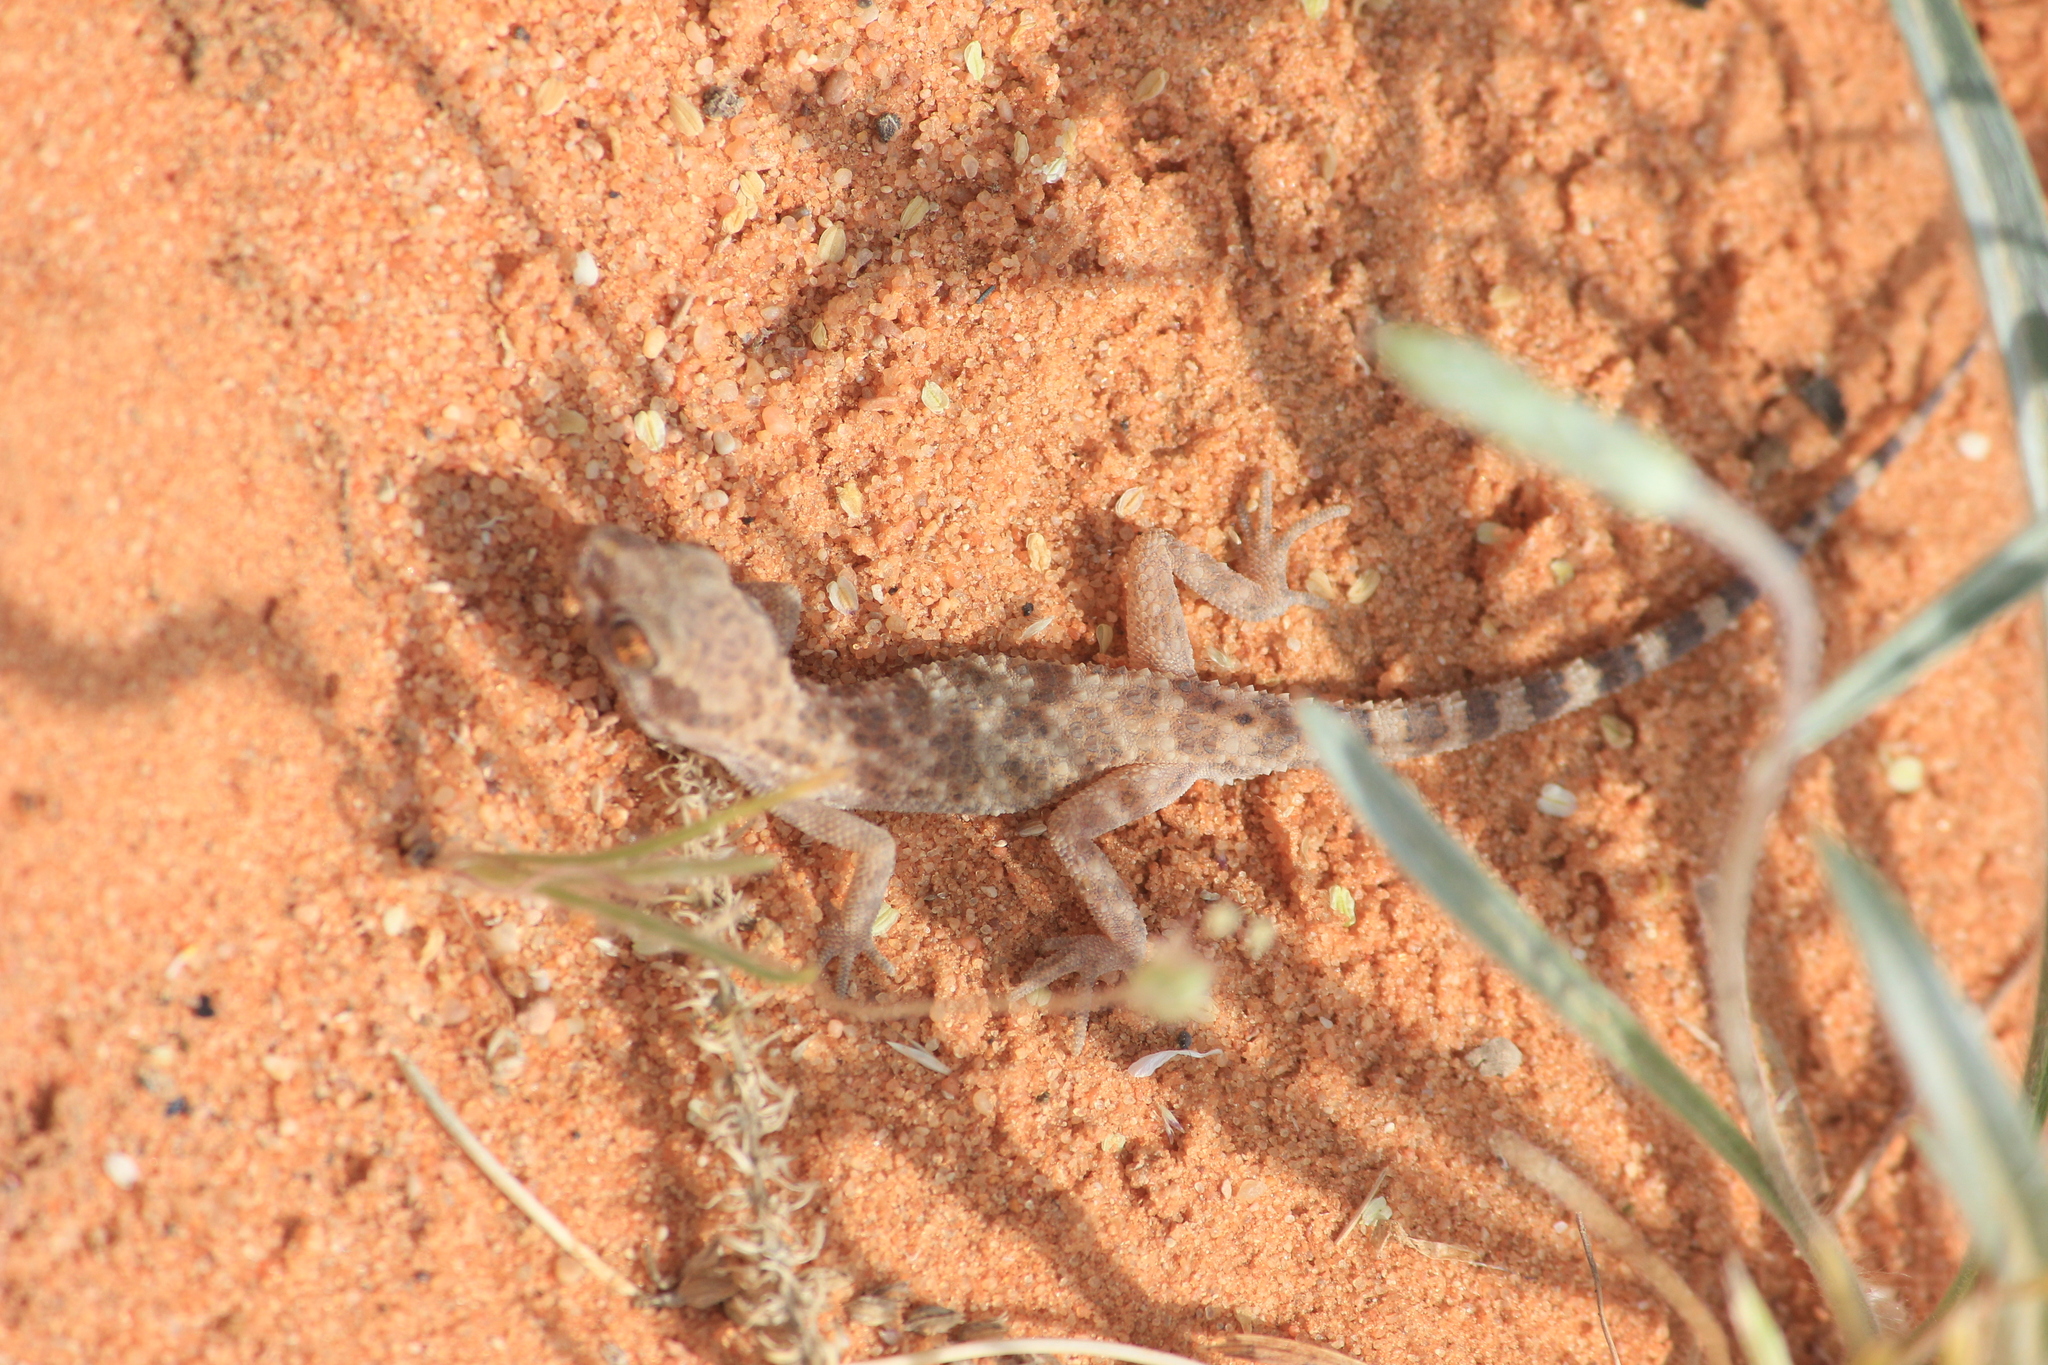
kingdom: Animalia
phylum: Chordata
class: Squamata
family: Gekkonidae
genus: Bunopus
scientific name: Bunopus tuberculatus
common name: Southern tuberculated gecko
